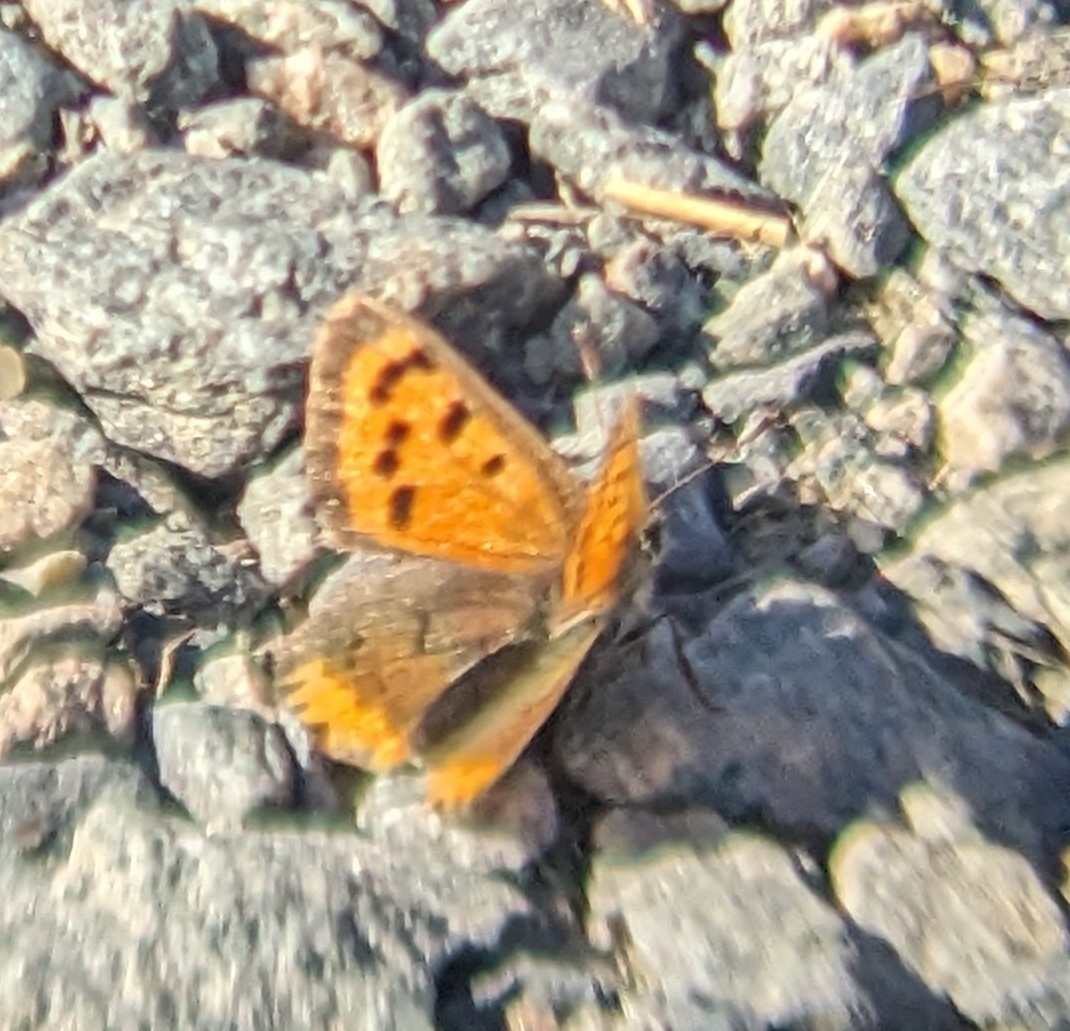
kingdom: Animalia
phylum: Arthropoda
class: Insecta
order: Lepidoptera
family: Lycaenidae
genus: Lycaena
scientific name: Lycaena hypophlaeas
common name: American copper
